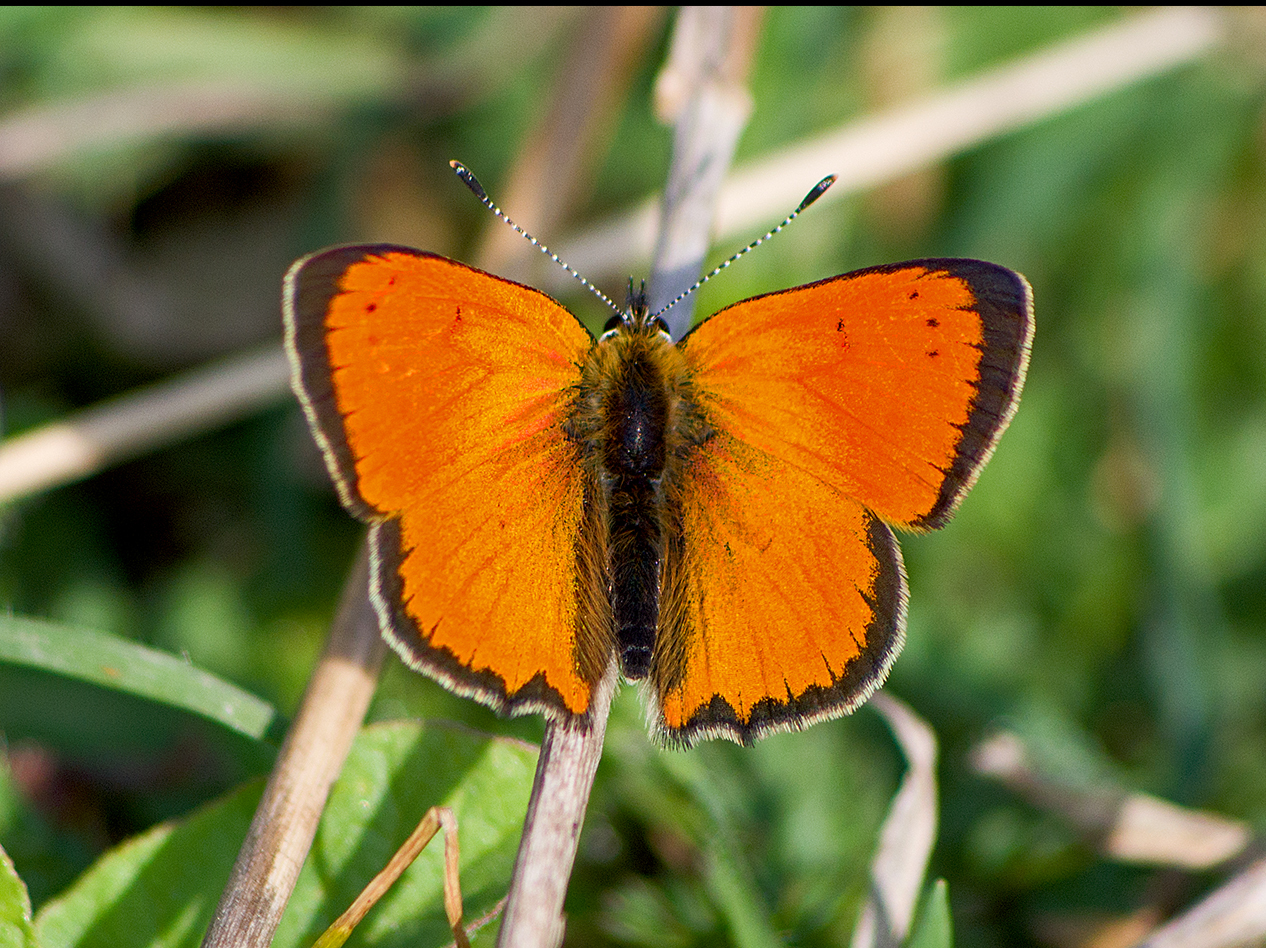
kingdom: Animalia
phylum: Arthropoda
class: Insecta
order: Lepidoptera
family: Lycaenidae
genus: Polyommatus
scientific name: Polyommatus ottomanus
